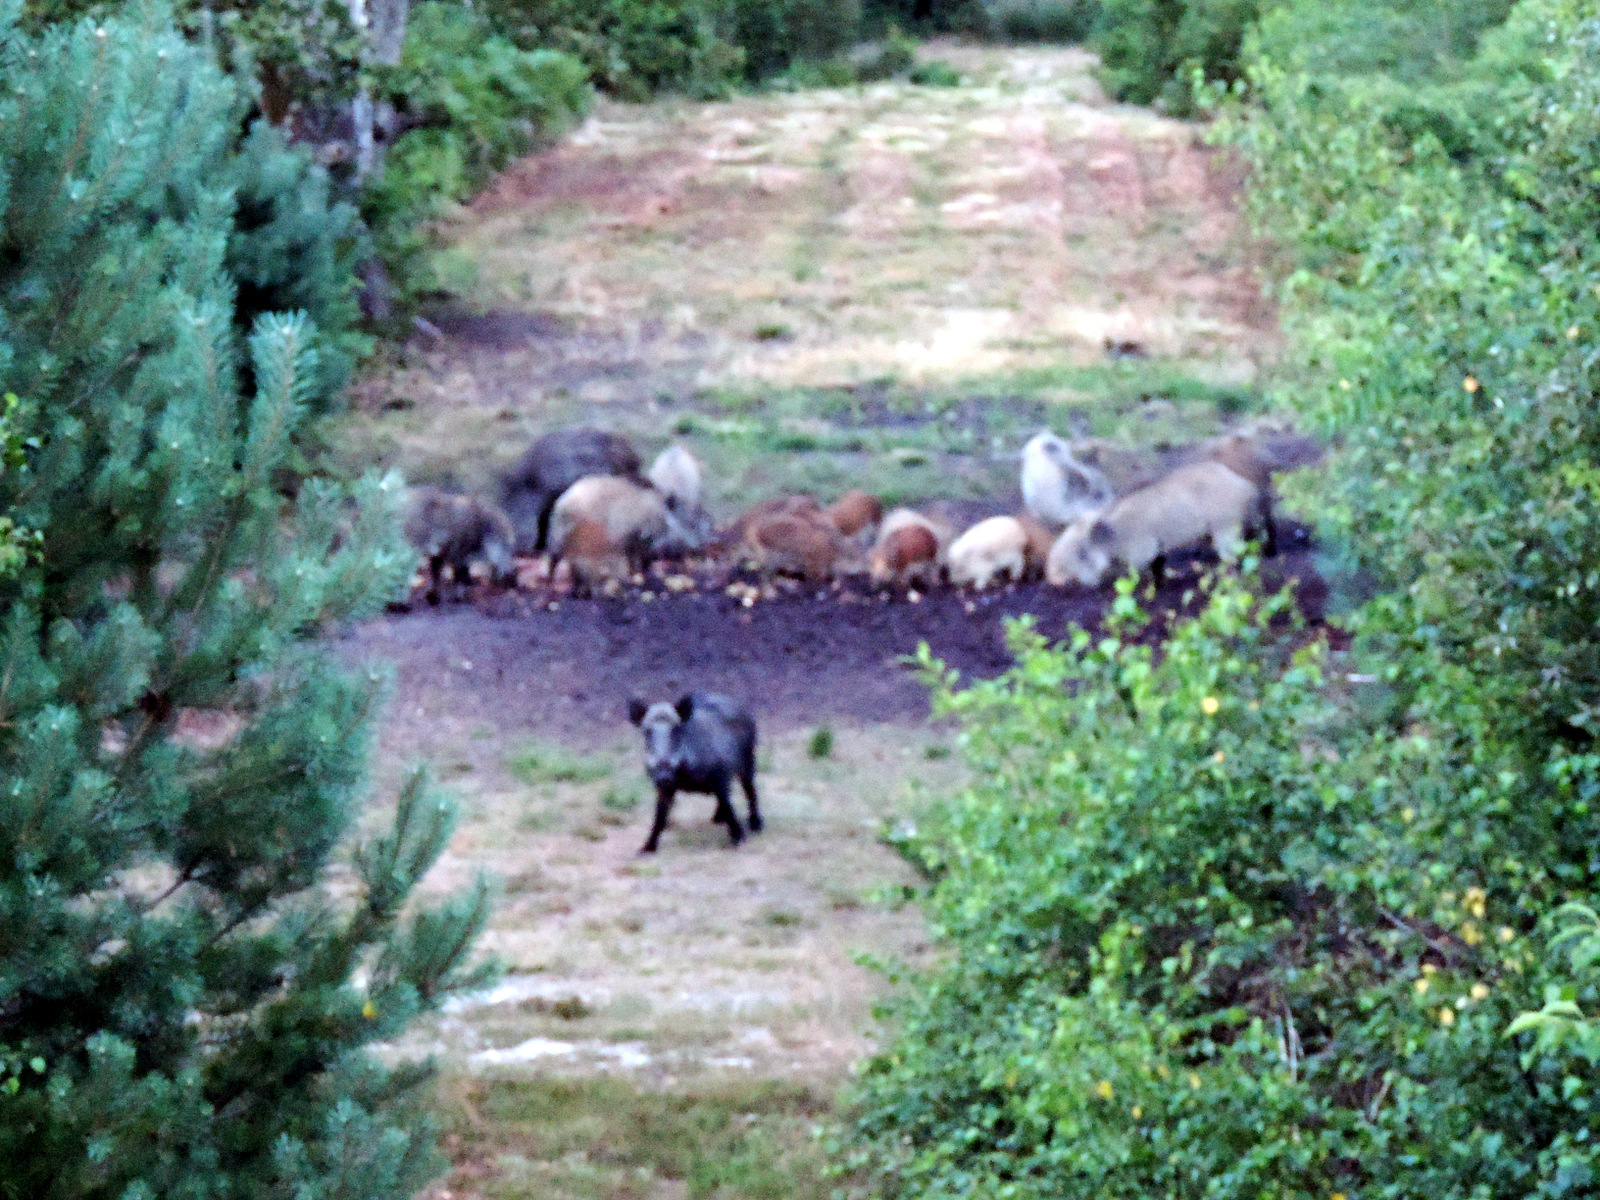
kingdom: Animalia
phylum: Chordata
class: Mammalia
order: Artiodactyla
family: Suidae
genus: Sus
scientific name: Sus scrofa
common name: Wild boar
